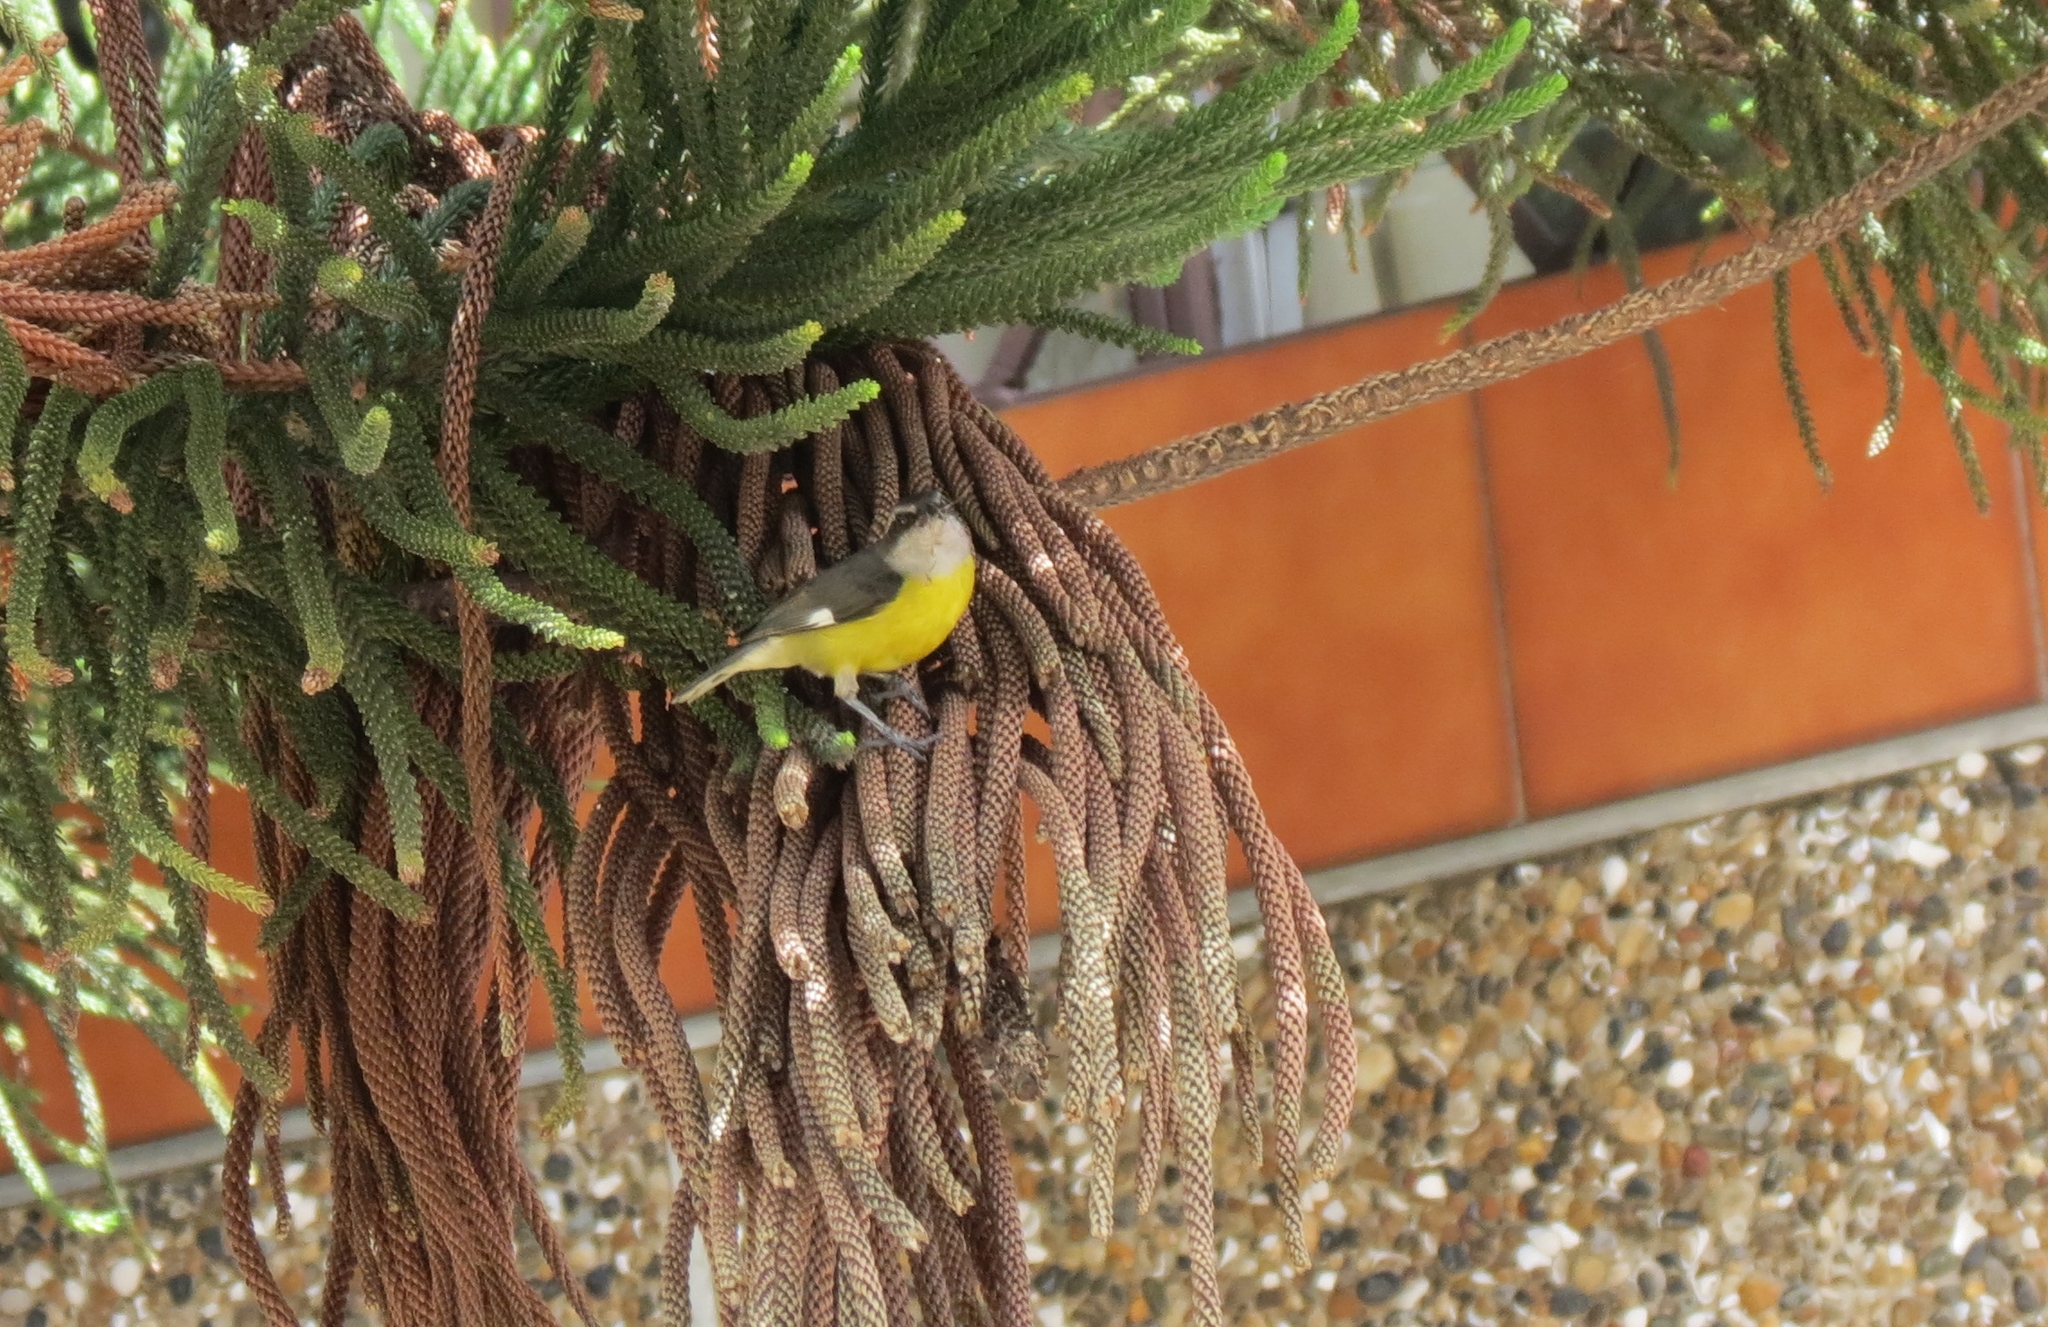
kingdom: Animalia
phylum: Chordata
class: Aves
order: Passeriformes
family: Thraupidae
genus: Coereba
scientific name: Coereba flaveola
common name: Bananaquit
